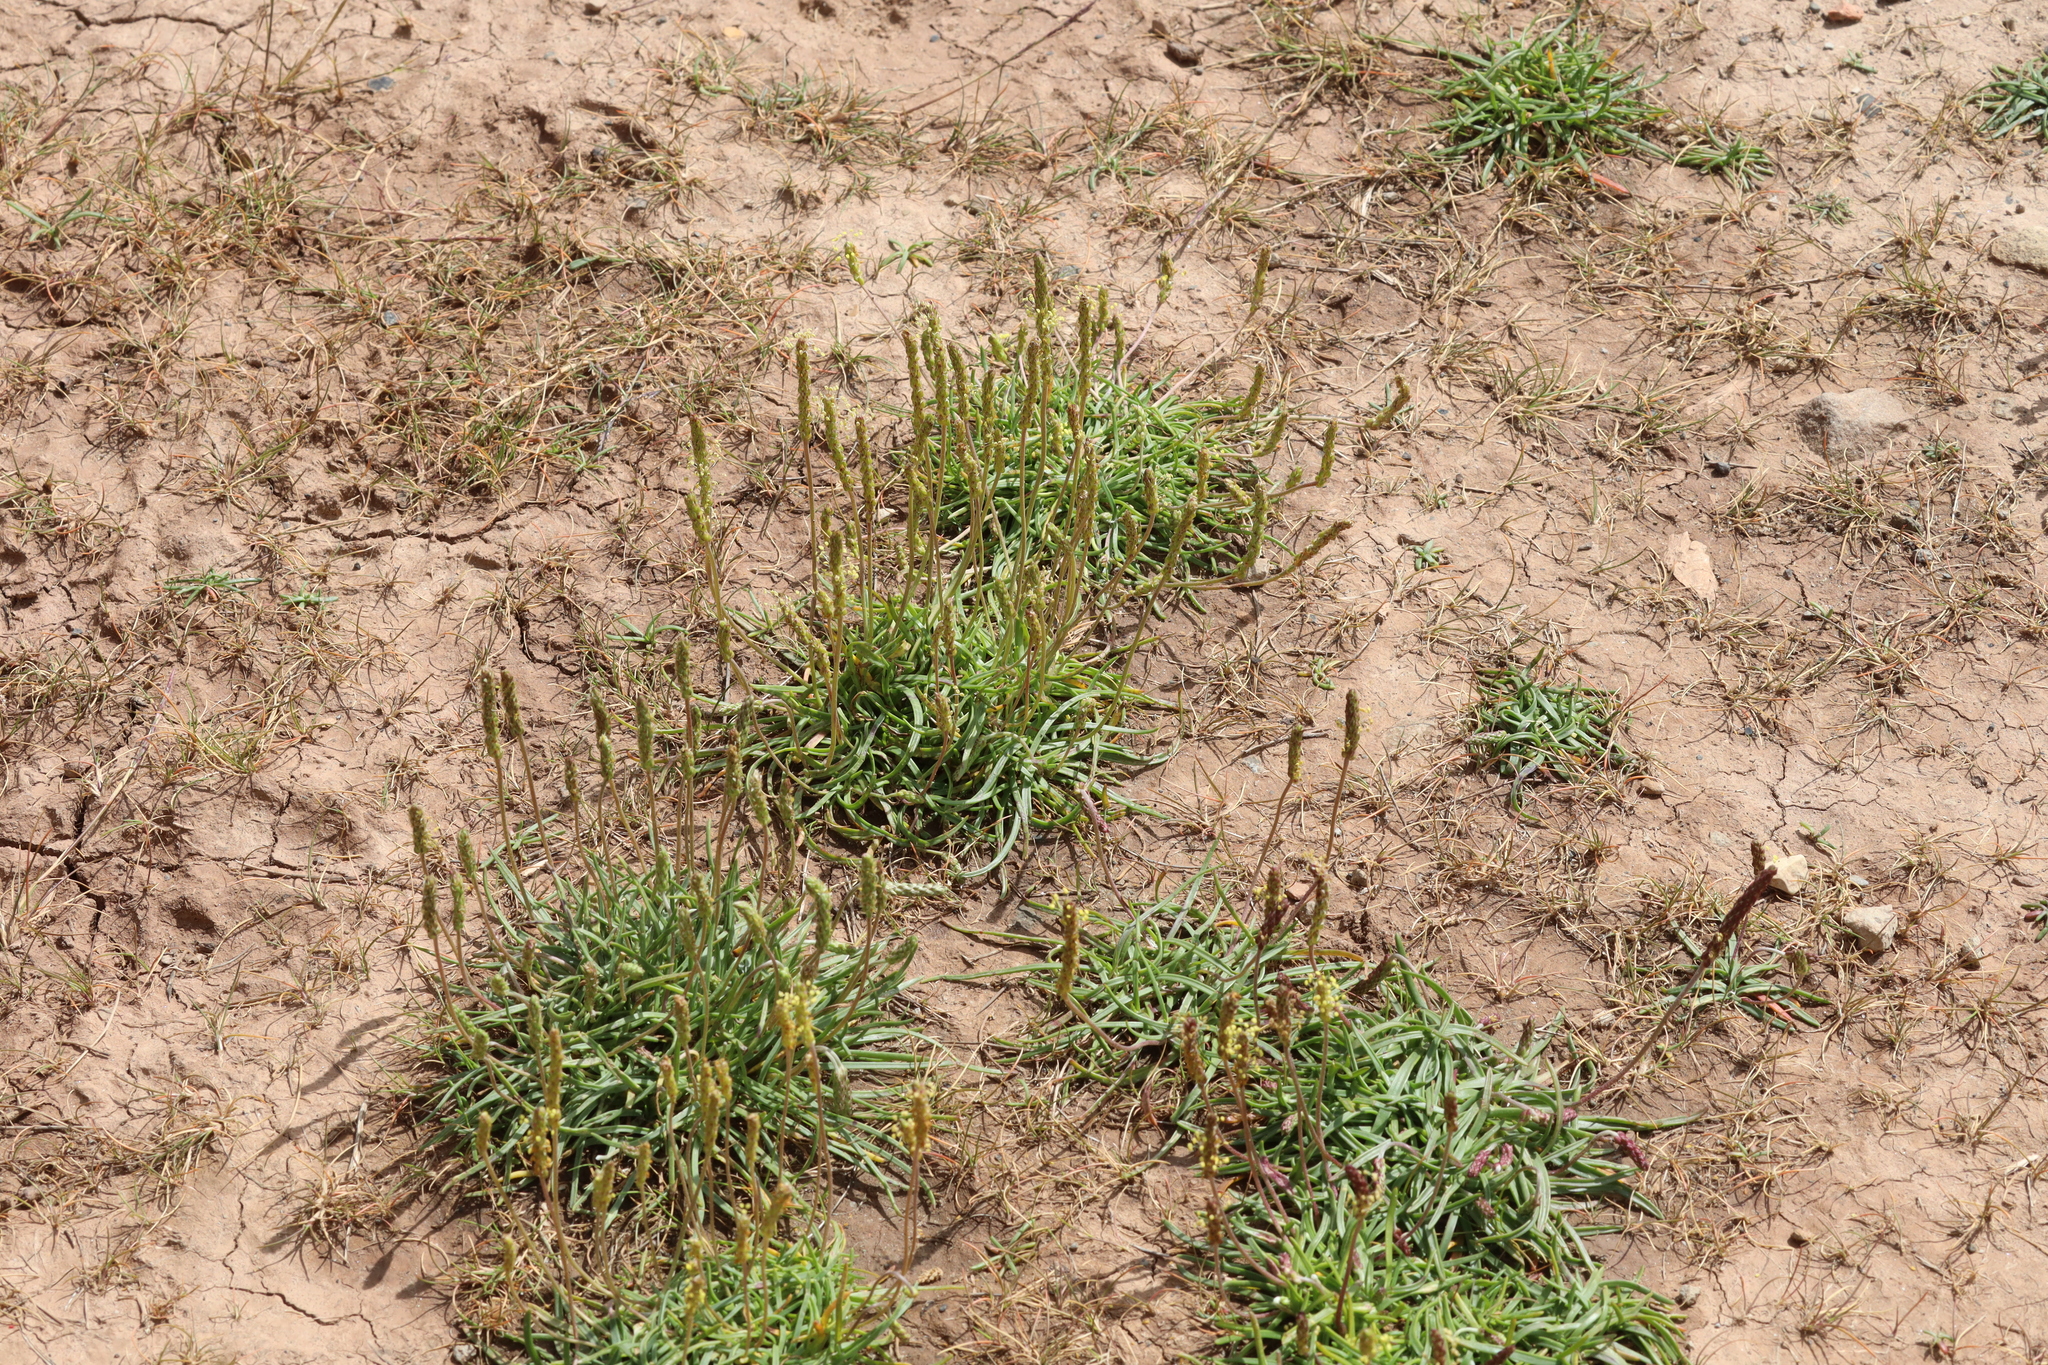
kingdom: Plantae
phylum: Tracheophyta
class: Magnoliopsida
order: Lamiales
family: Plantaginaceae
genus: Plantago
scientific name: Plantago maritima
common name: Sea plantain
